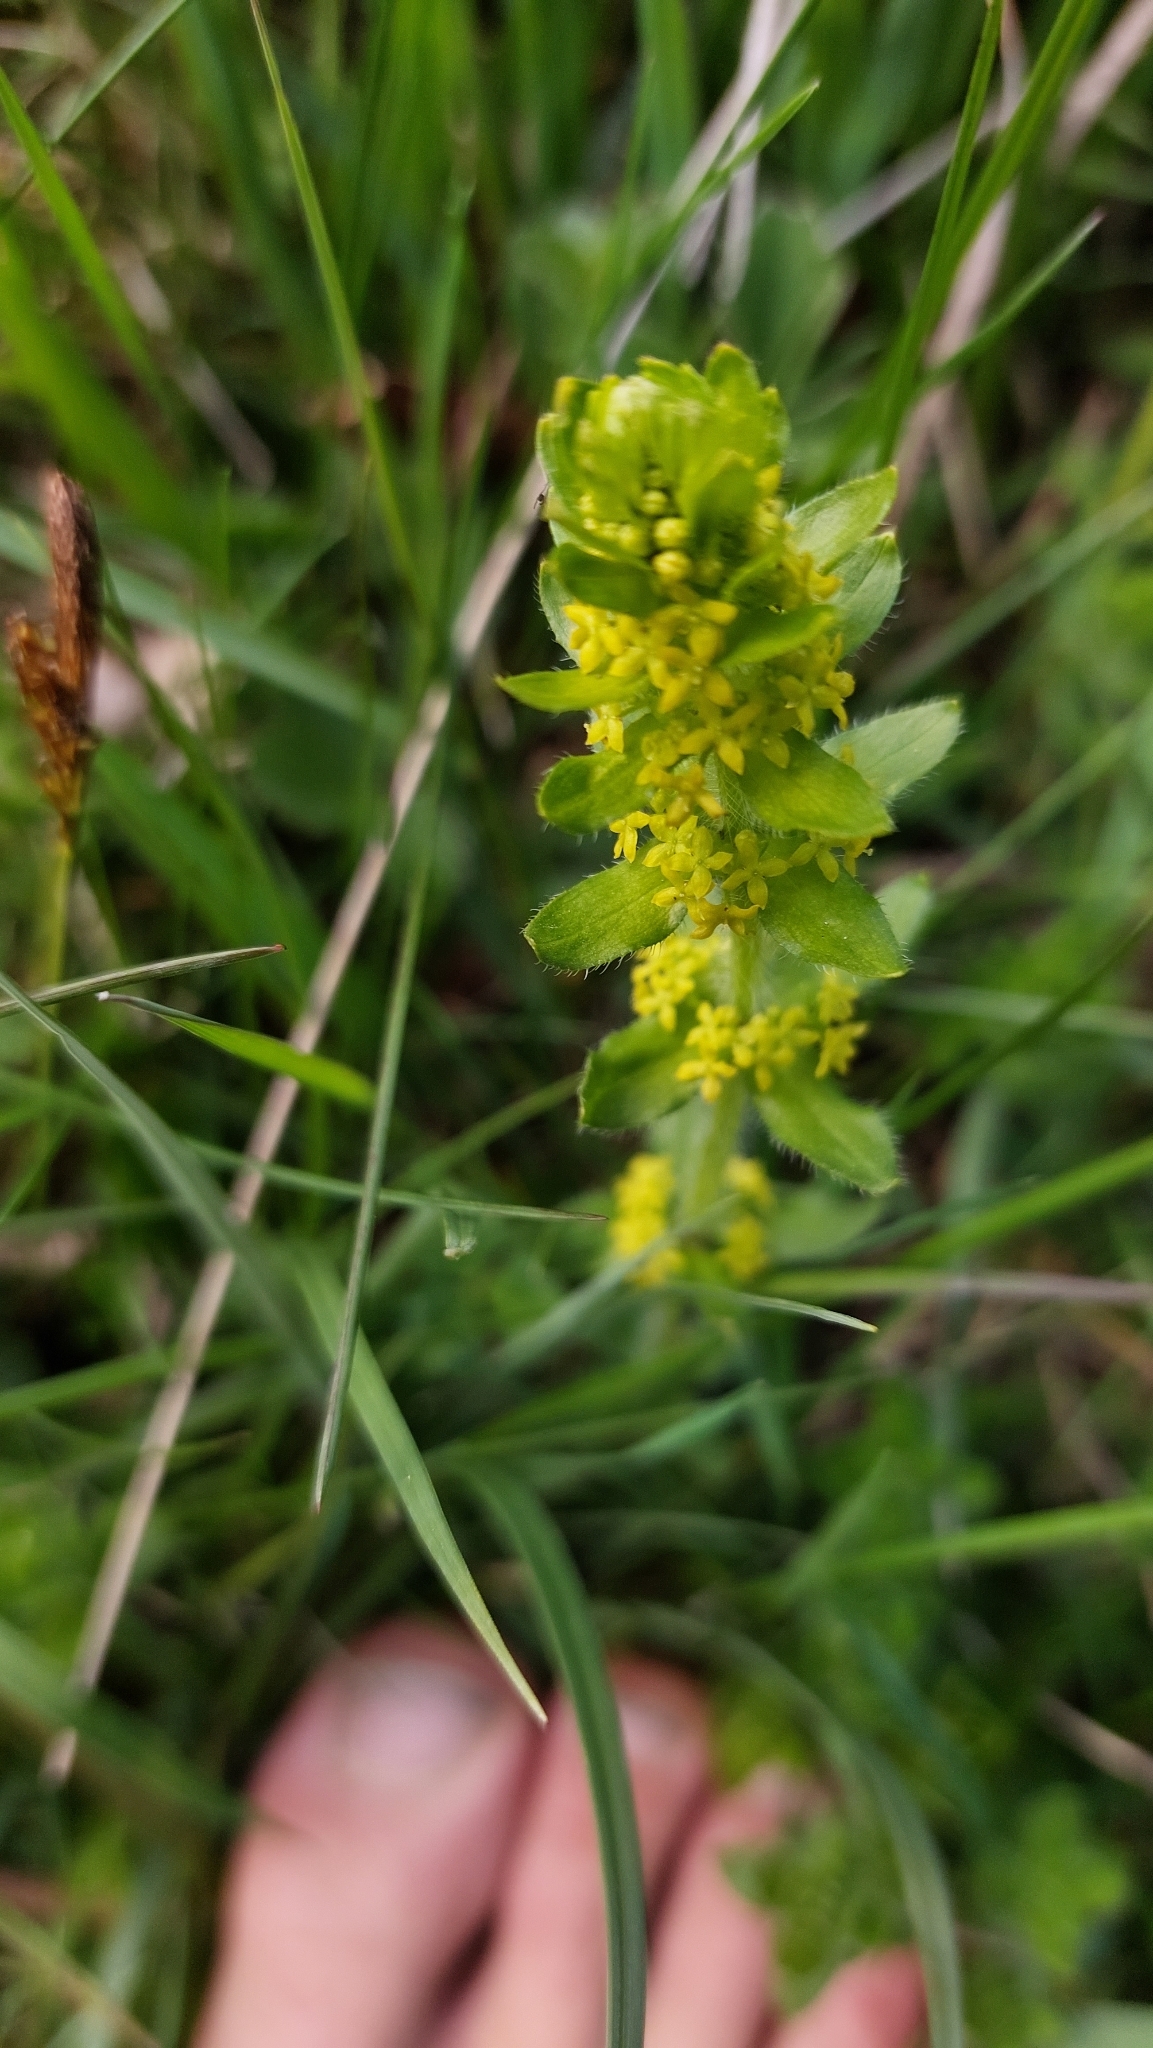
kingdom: Plantae
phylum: Tracheophyta
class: Magnoliopsida
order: Gentianales
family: Rubiaceae
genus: Cruciata
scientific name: Cruciata laevipes
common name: Crosswort
